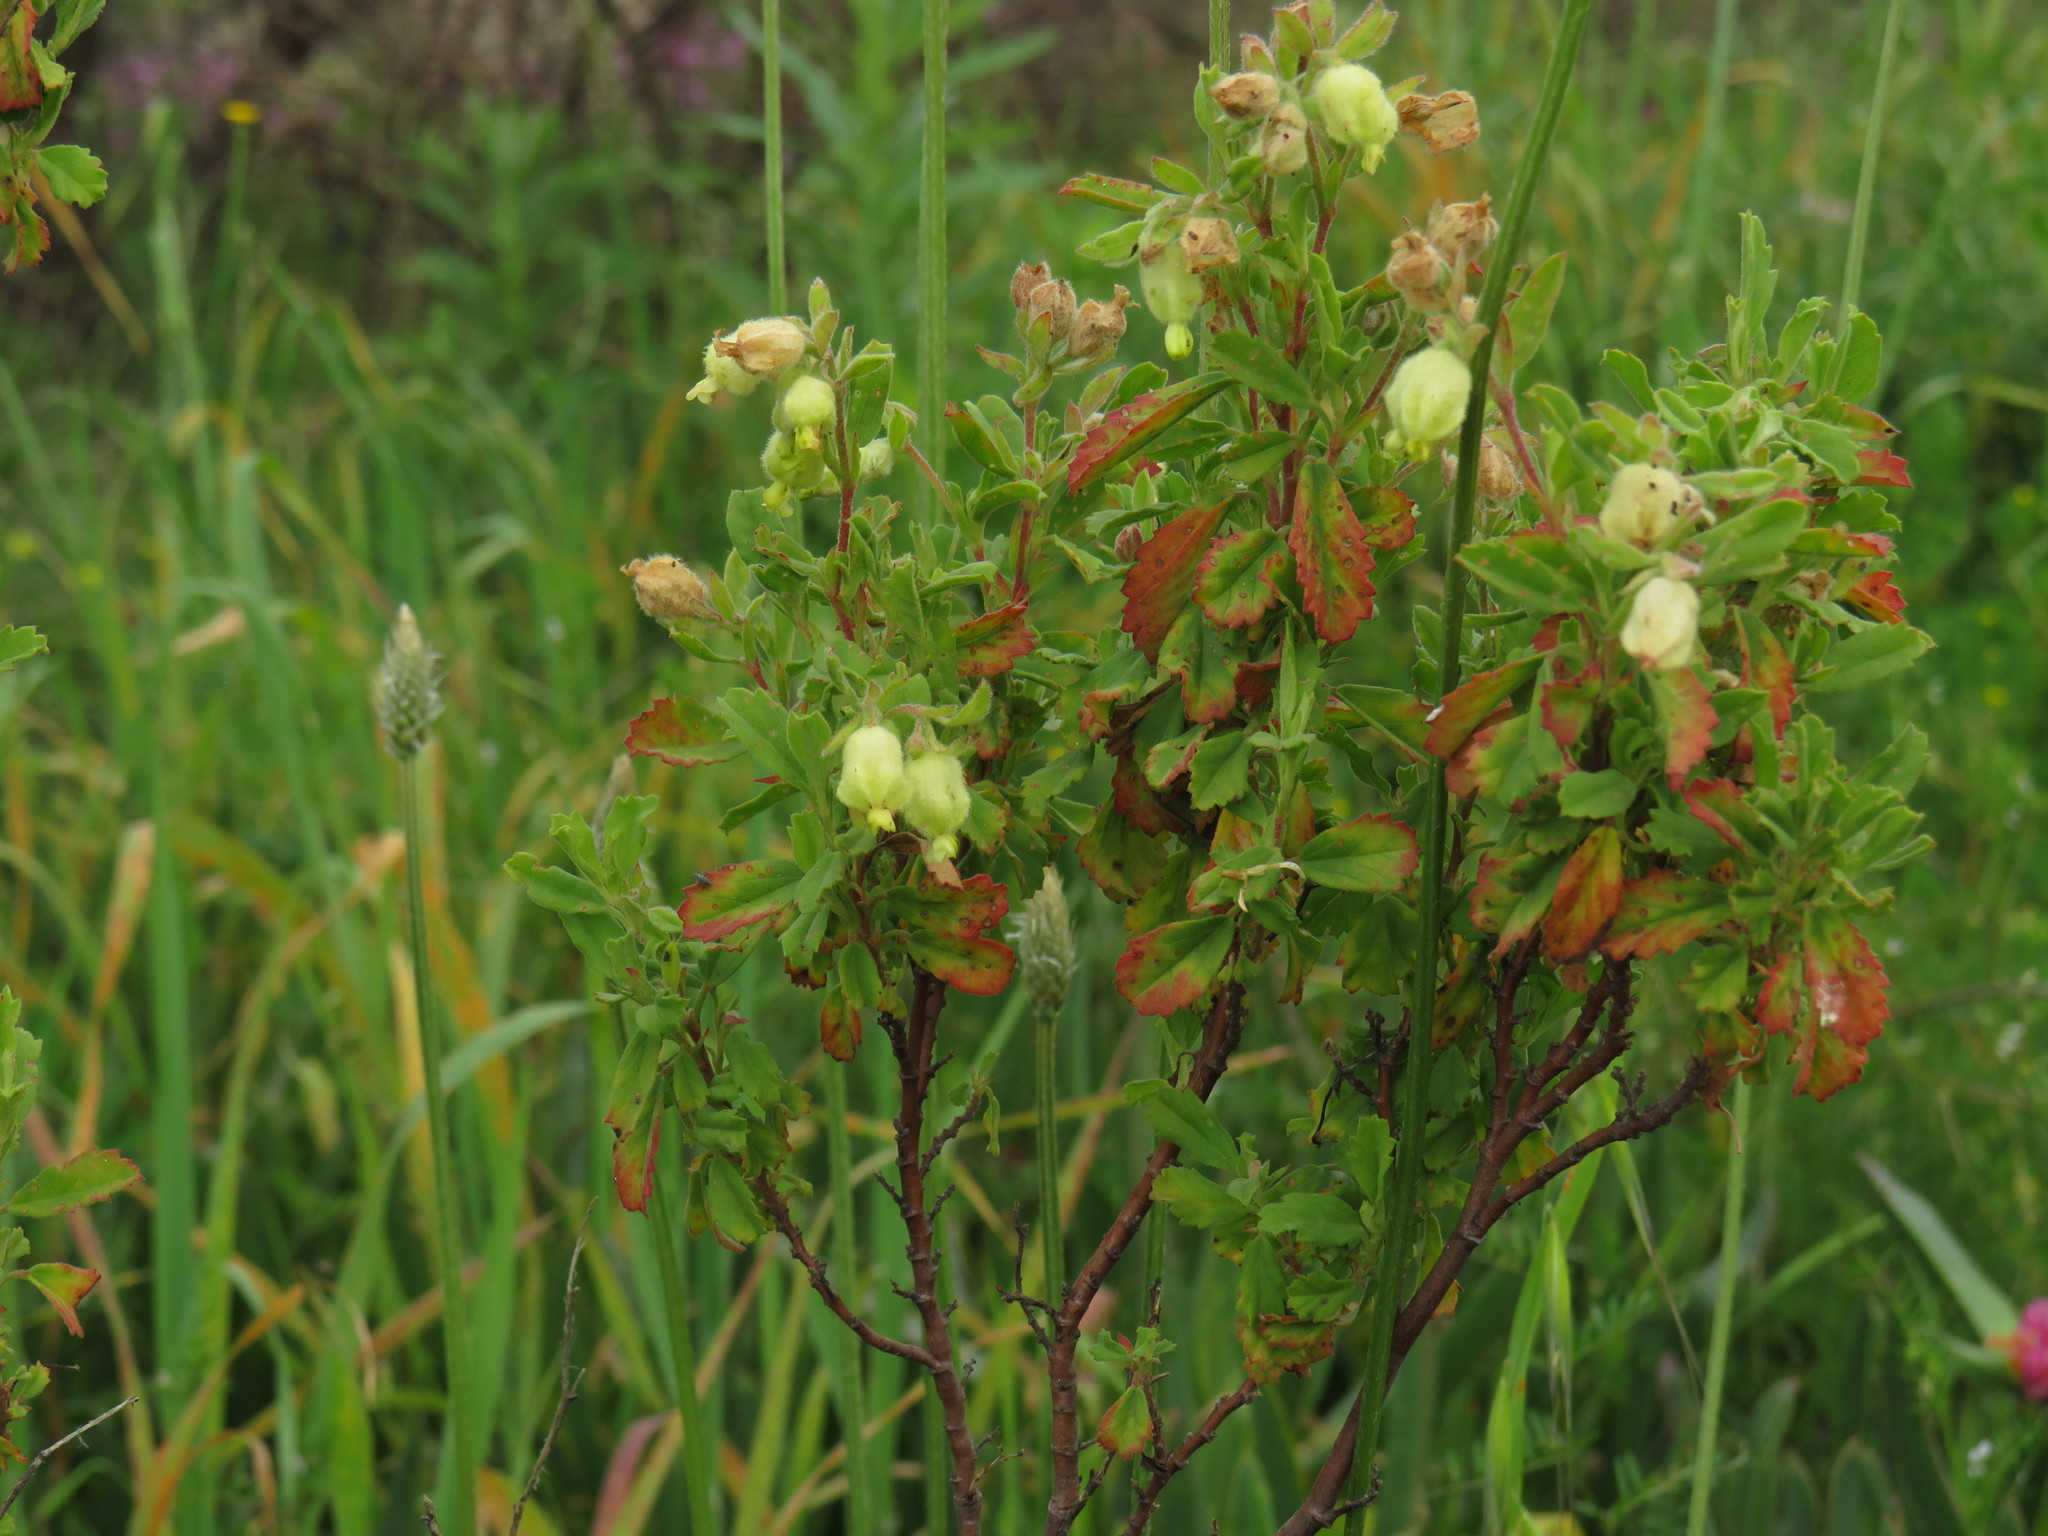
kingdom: Plantae
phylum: Tracheophyta
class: Magnoliopsida
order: Malvales
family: Malvaceae
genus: Hermannia
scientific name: Hermannia hyssopifolia
